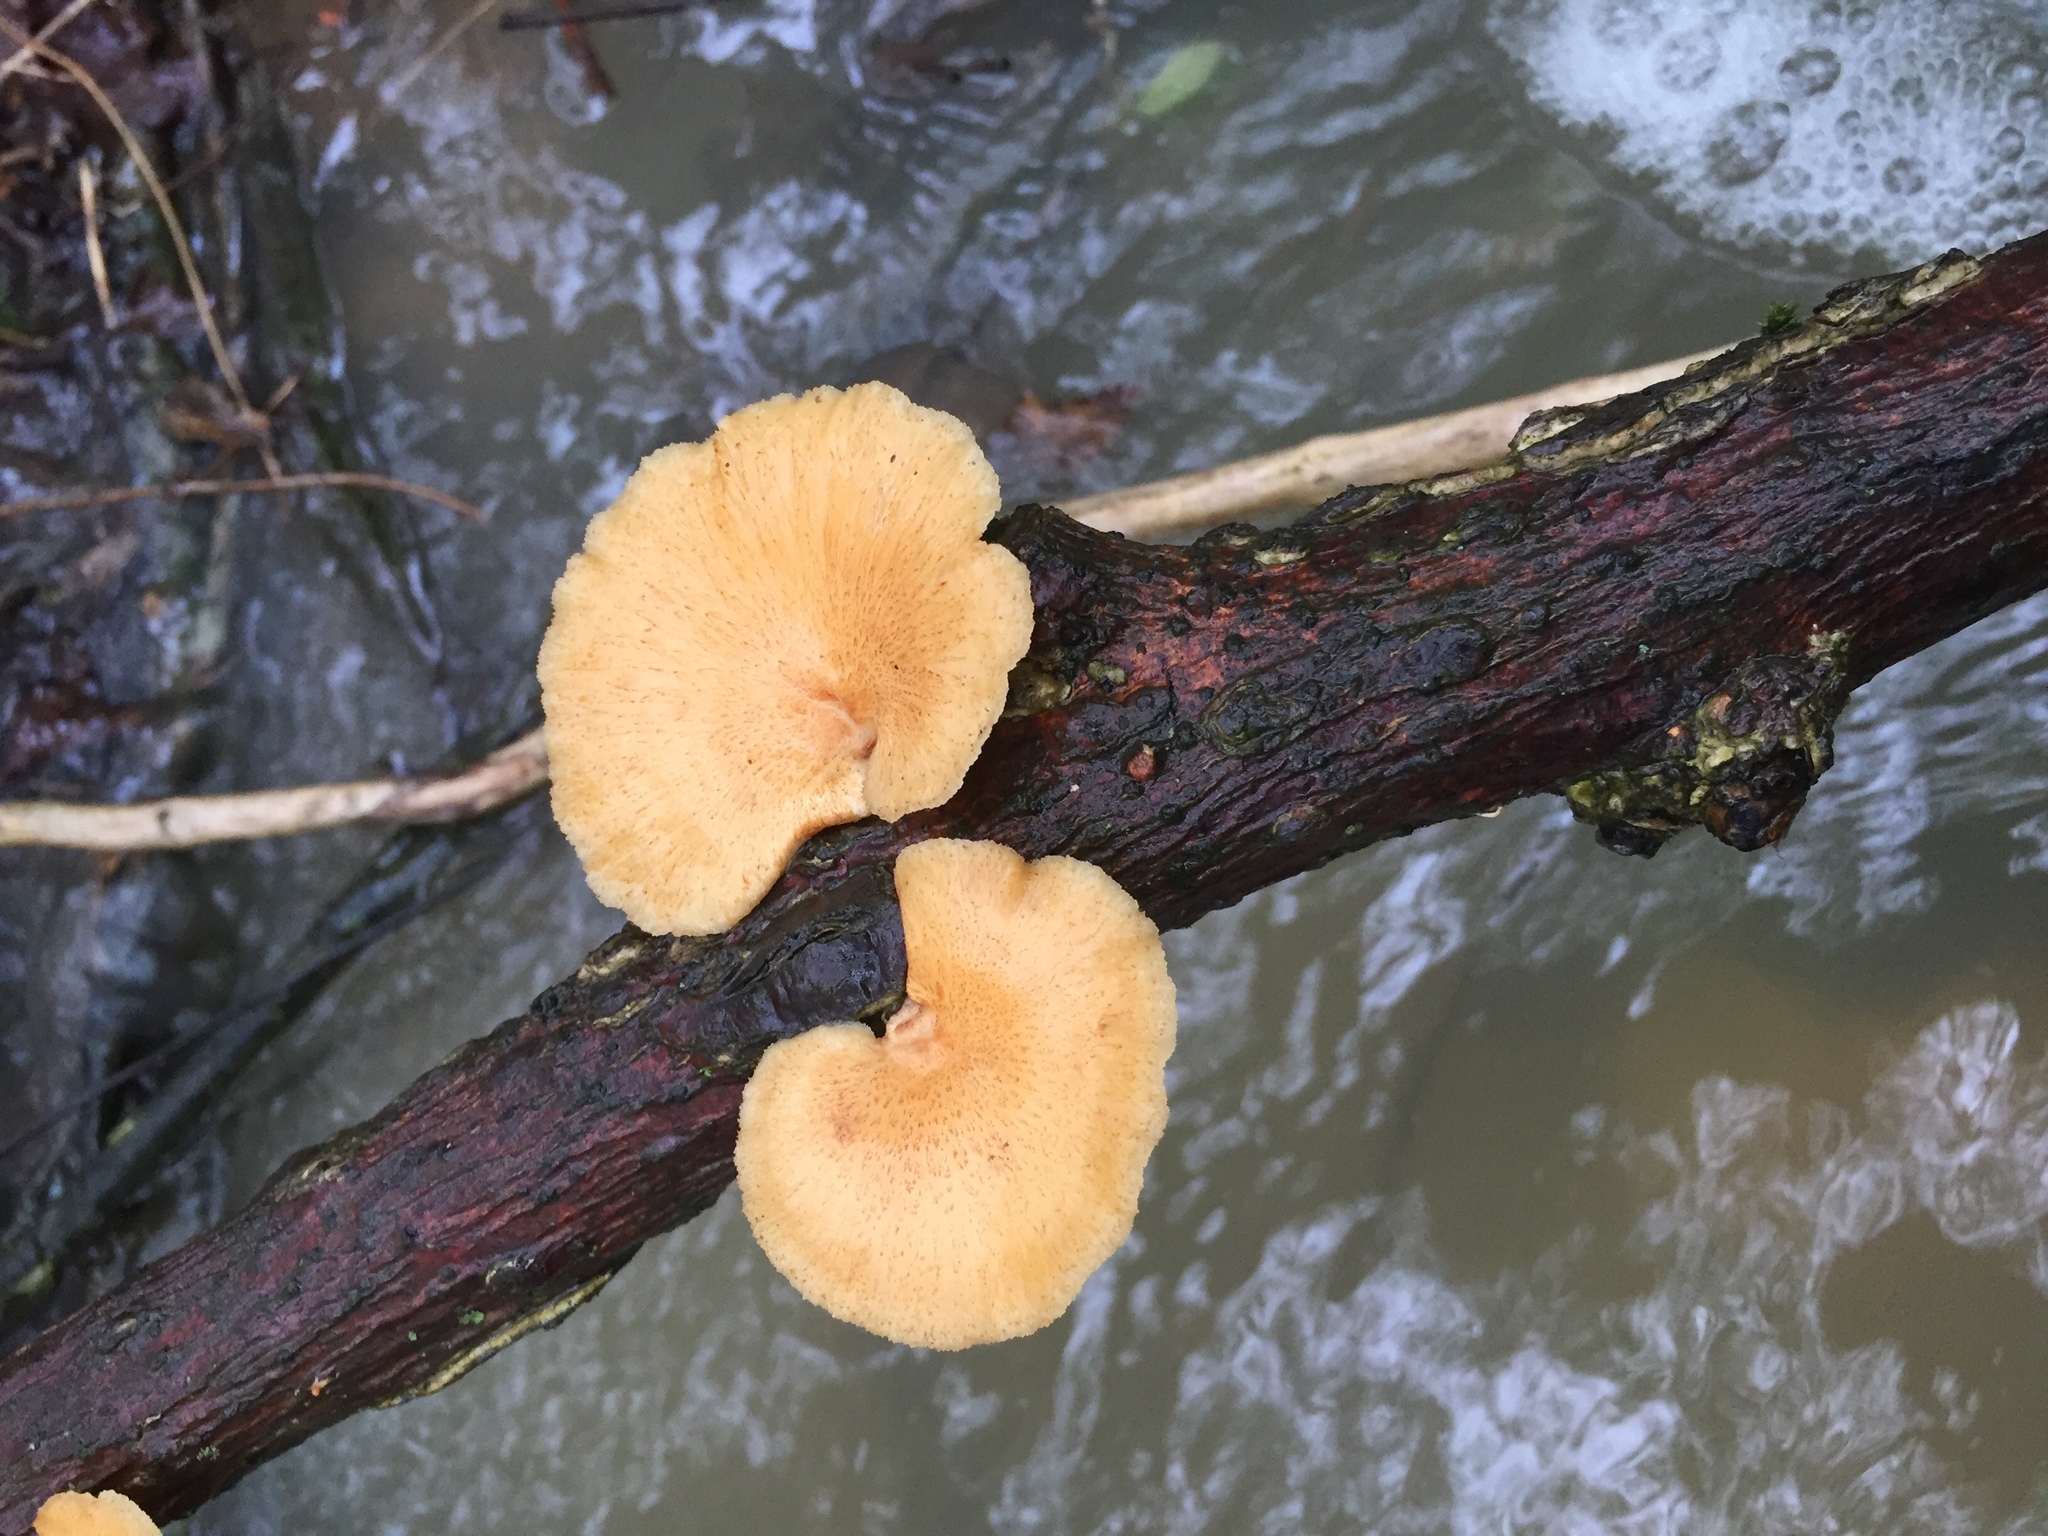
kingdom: Fungi
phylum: Basidiomycota
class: Agaricomycetes
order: Polyporales
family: Polyporaceae
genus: Neofavolus
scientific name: Neofavolus alveolaris
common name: Hexagonal-pored polypore
